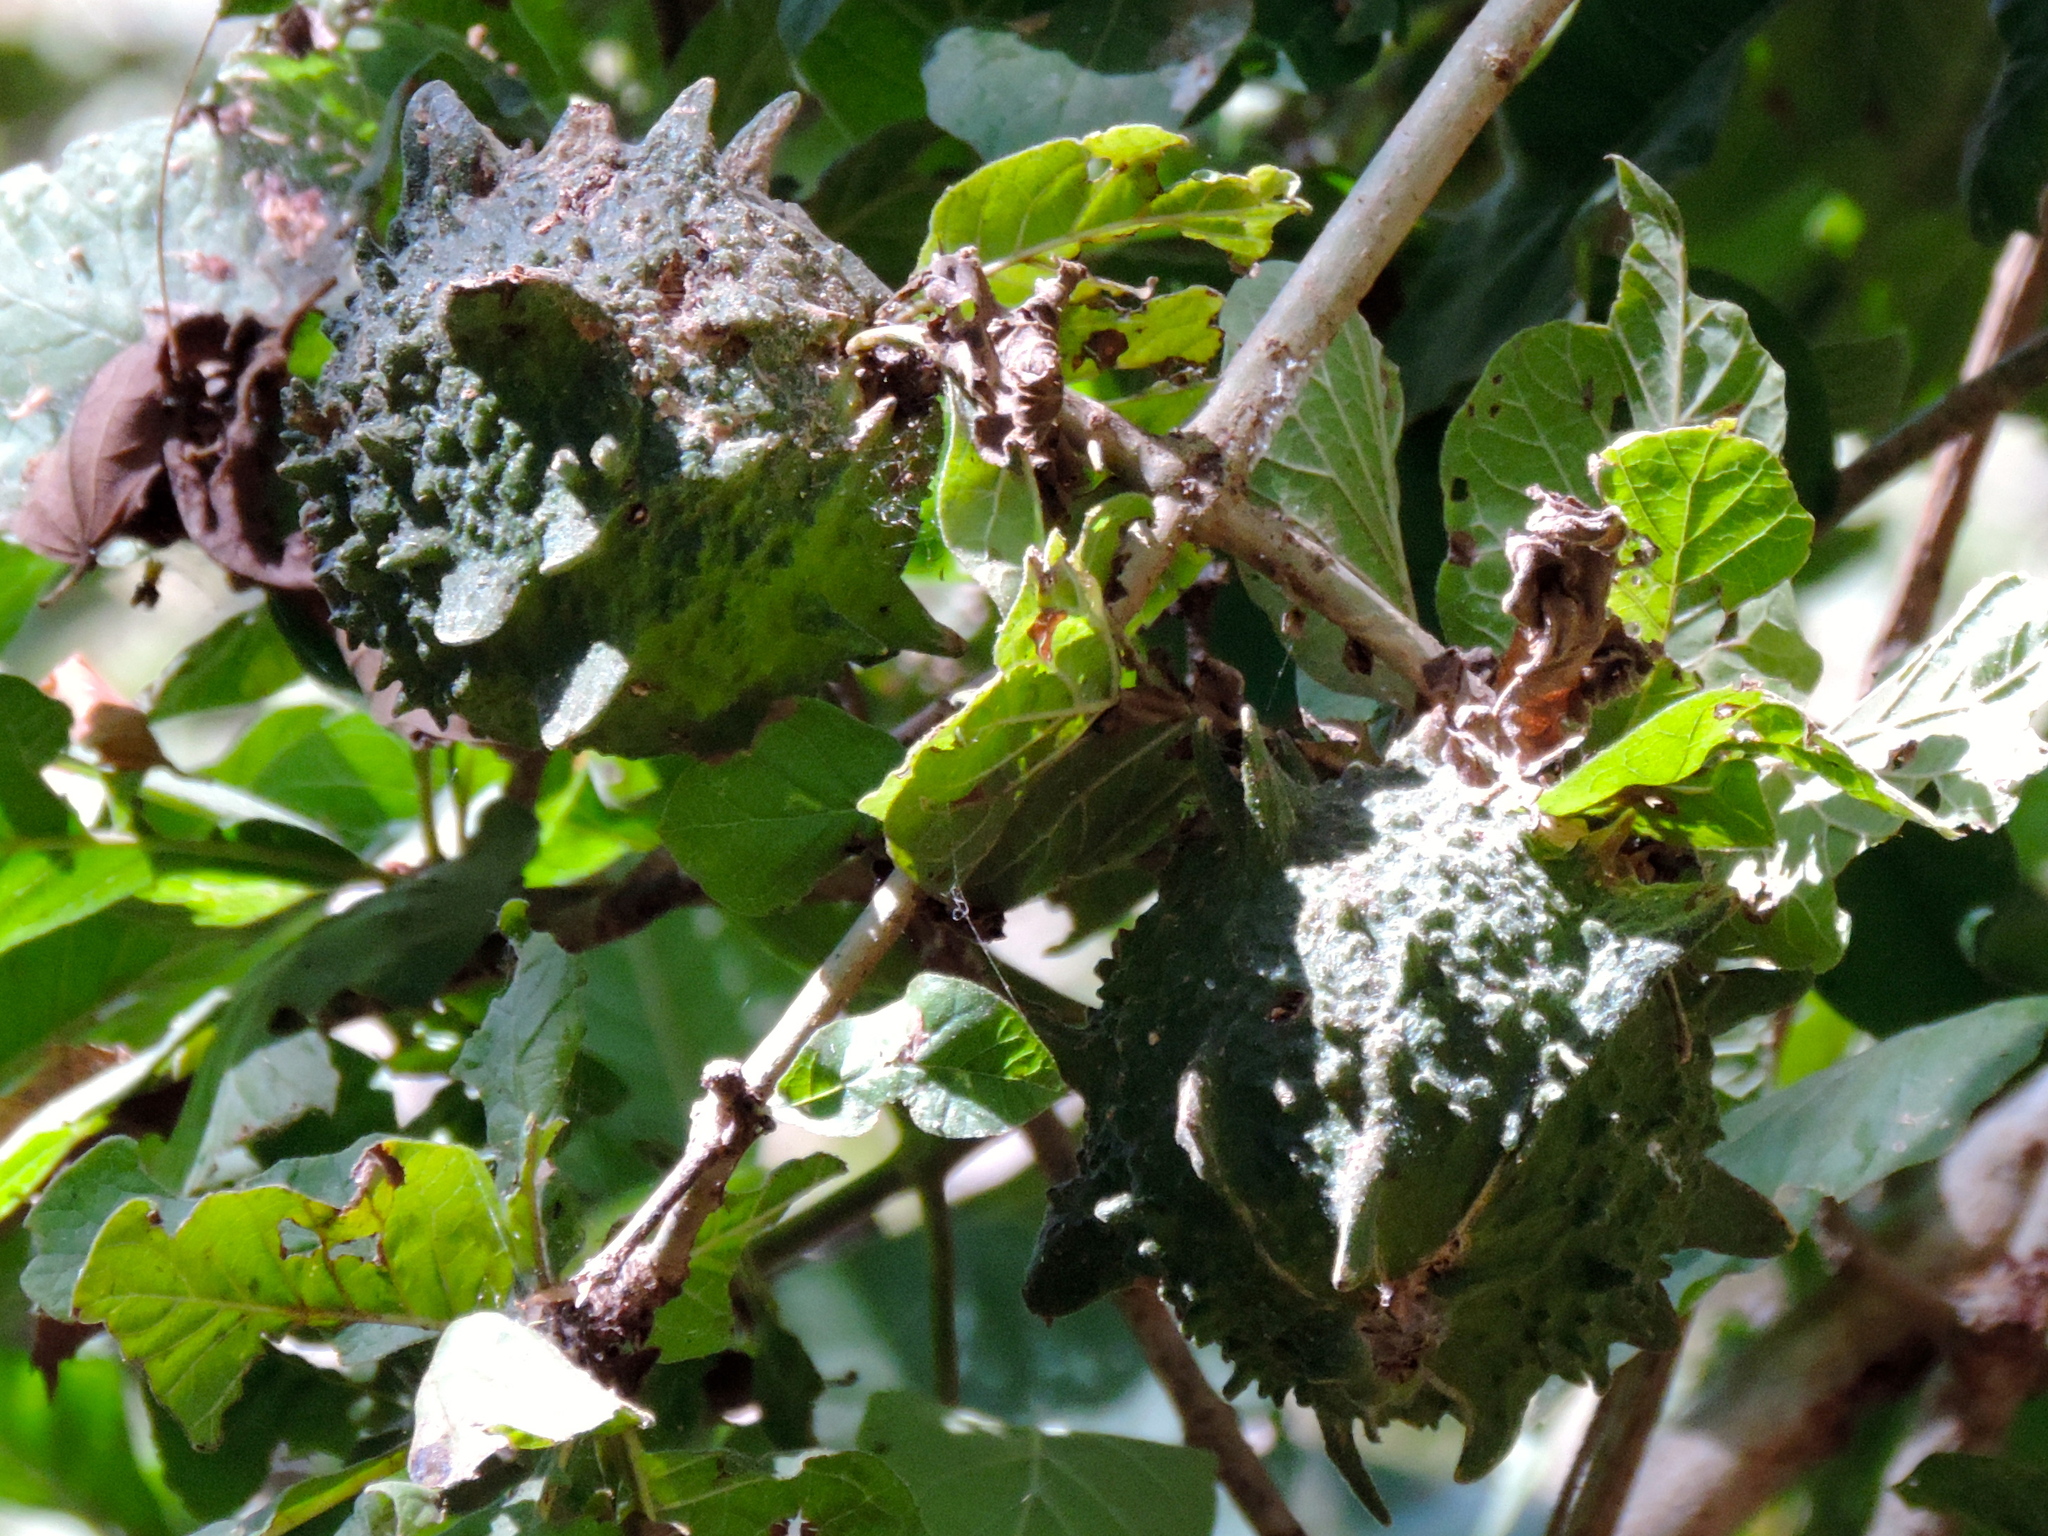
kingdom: Plantae
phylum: Tracheophyta
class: Magnoliopsida
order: Gentianales
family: Rubiaceae
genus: Randia
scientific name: Randia echinocarpa
